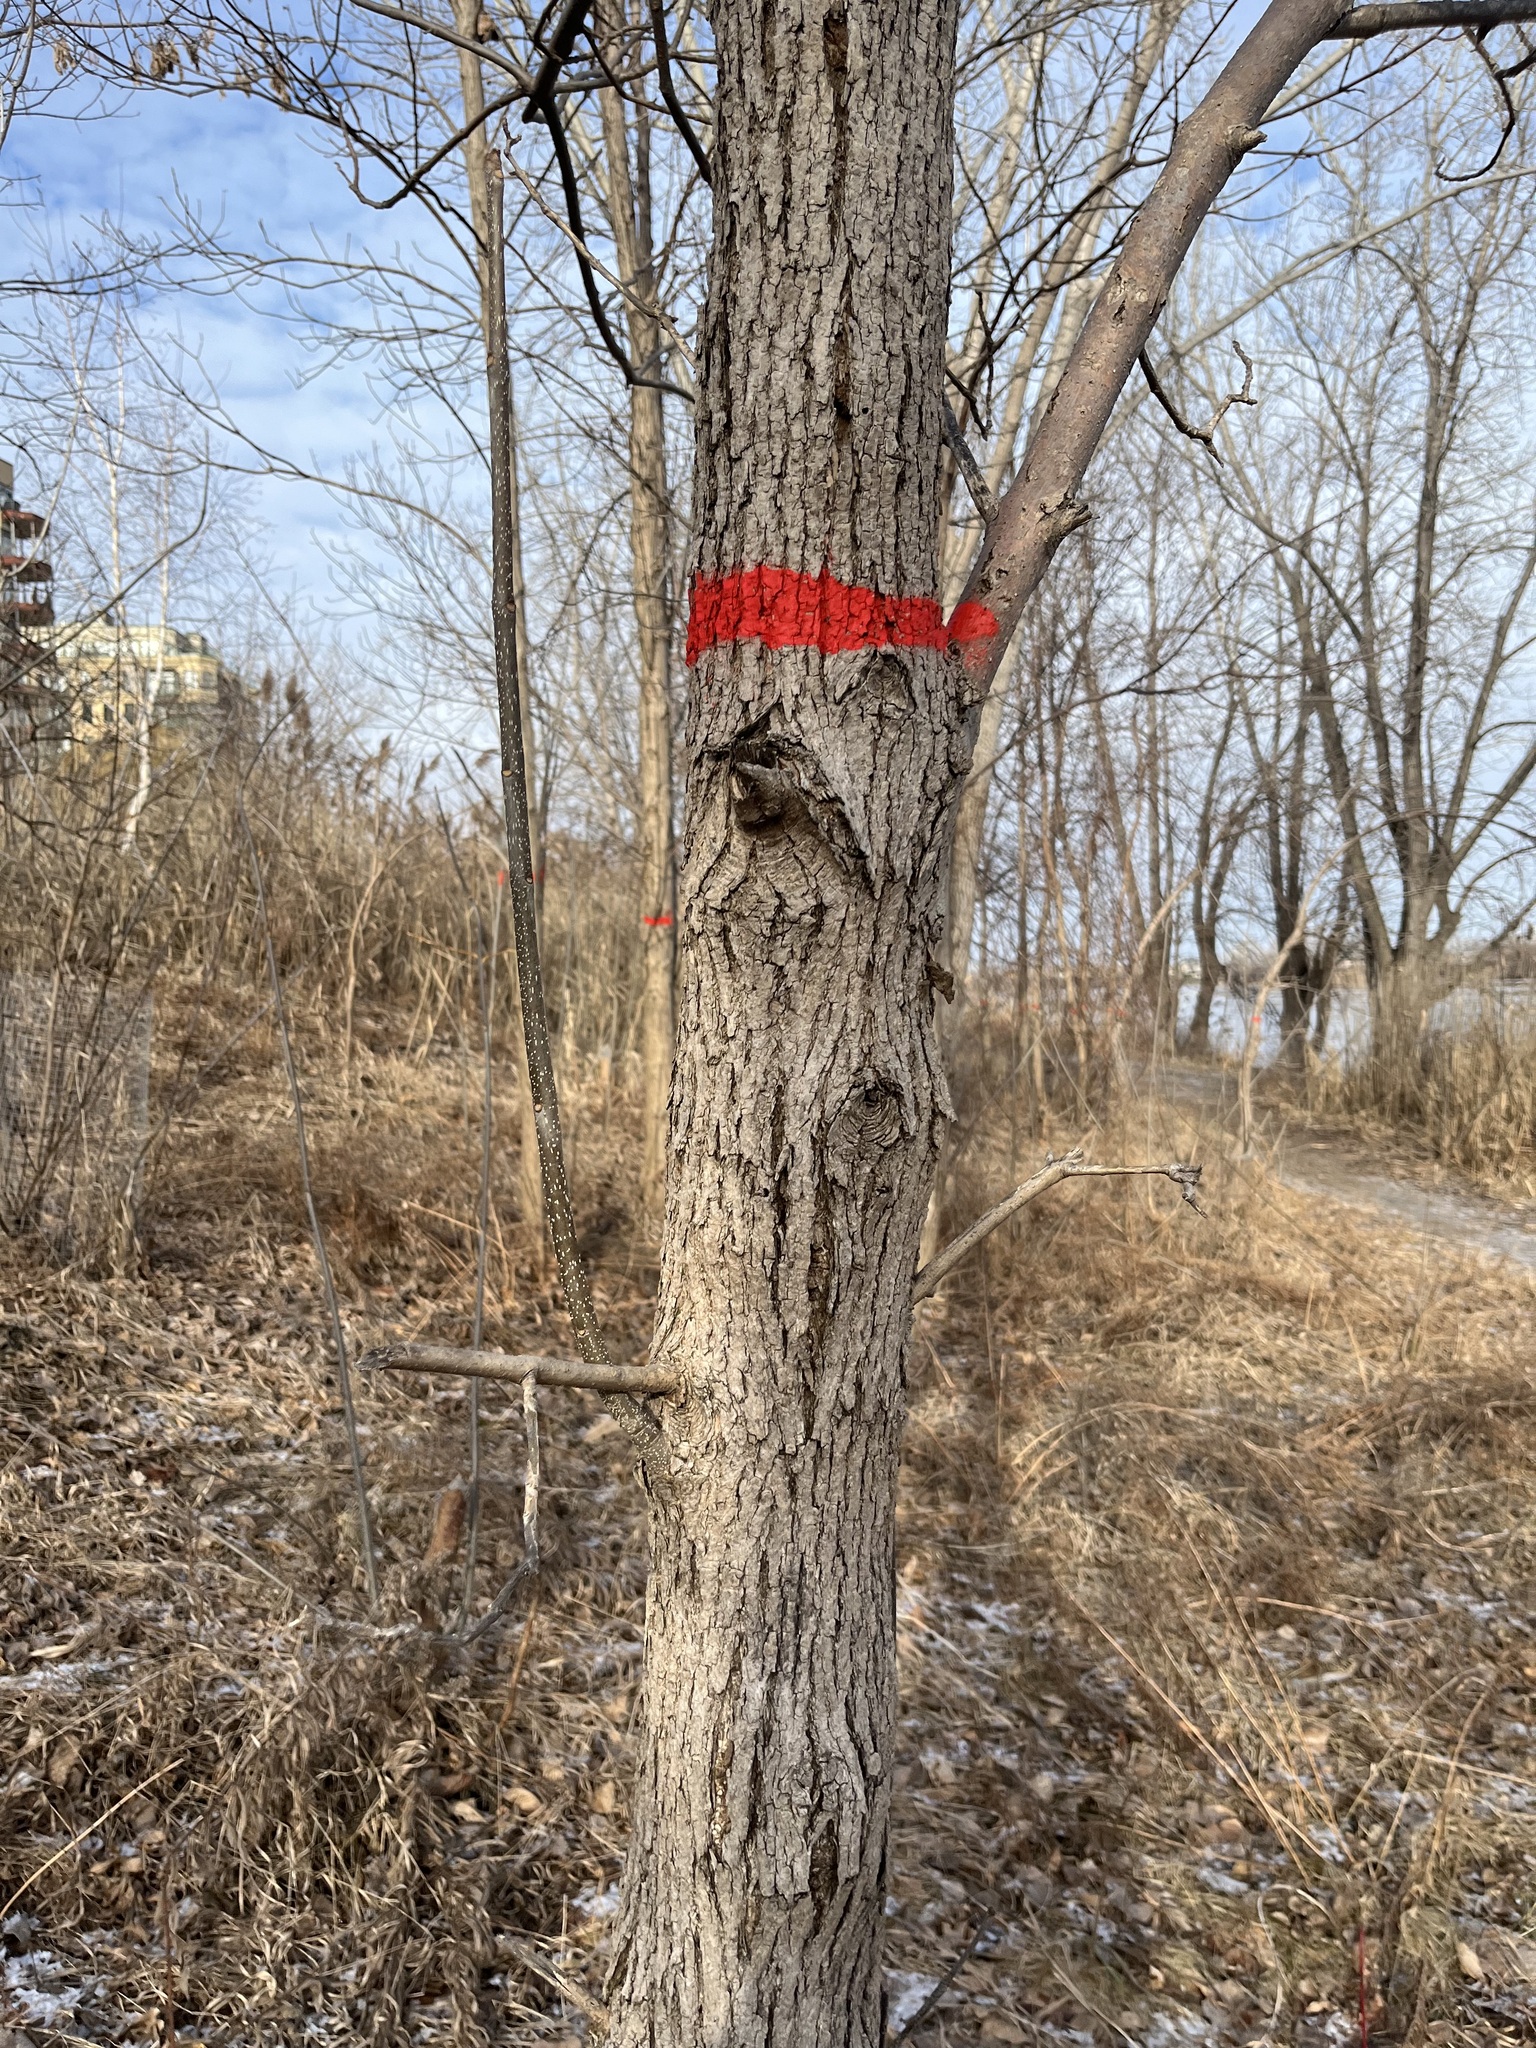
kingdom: Plantae
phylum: Tracheophyta
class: Magnoliopsida
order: Lamiales
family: Oleaceae
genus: Fraxinus
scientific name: Fraxinus pennsylvanica
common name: Green ash
